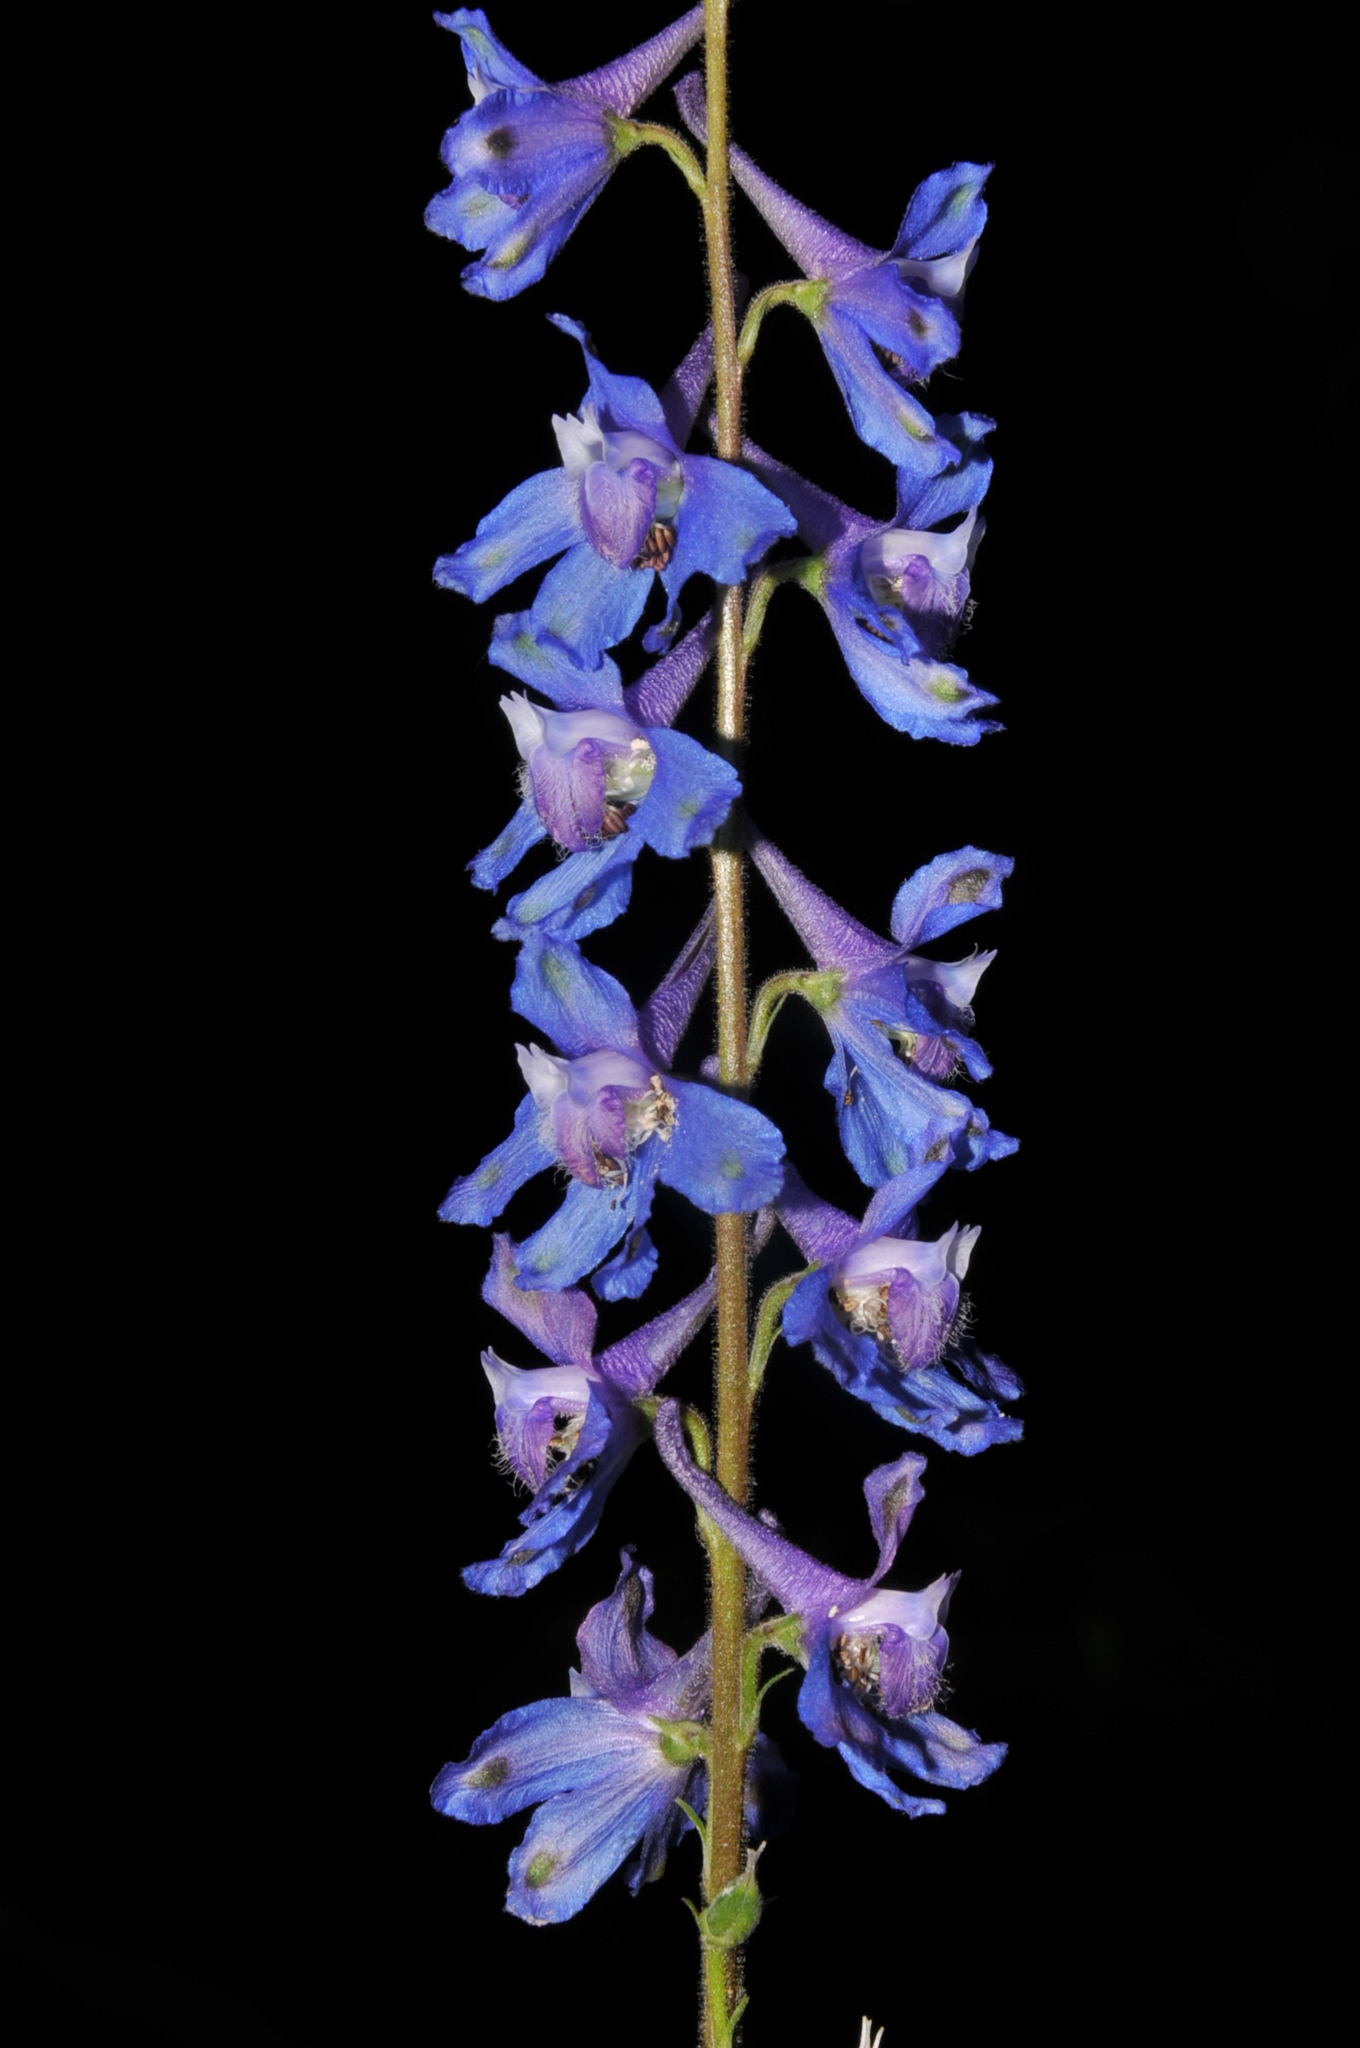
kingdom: Plantae
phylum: Tracheophyta
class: Magnoliopsida
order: Ranunculales
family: Ranunculaceae
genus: Delphinium
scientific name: Delphinium carolinianum
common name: Carolina larkspur
